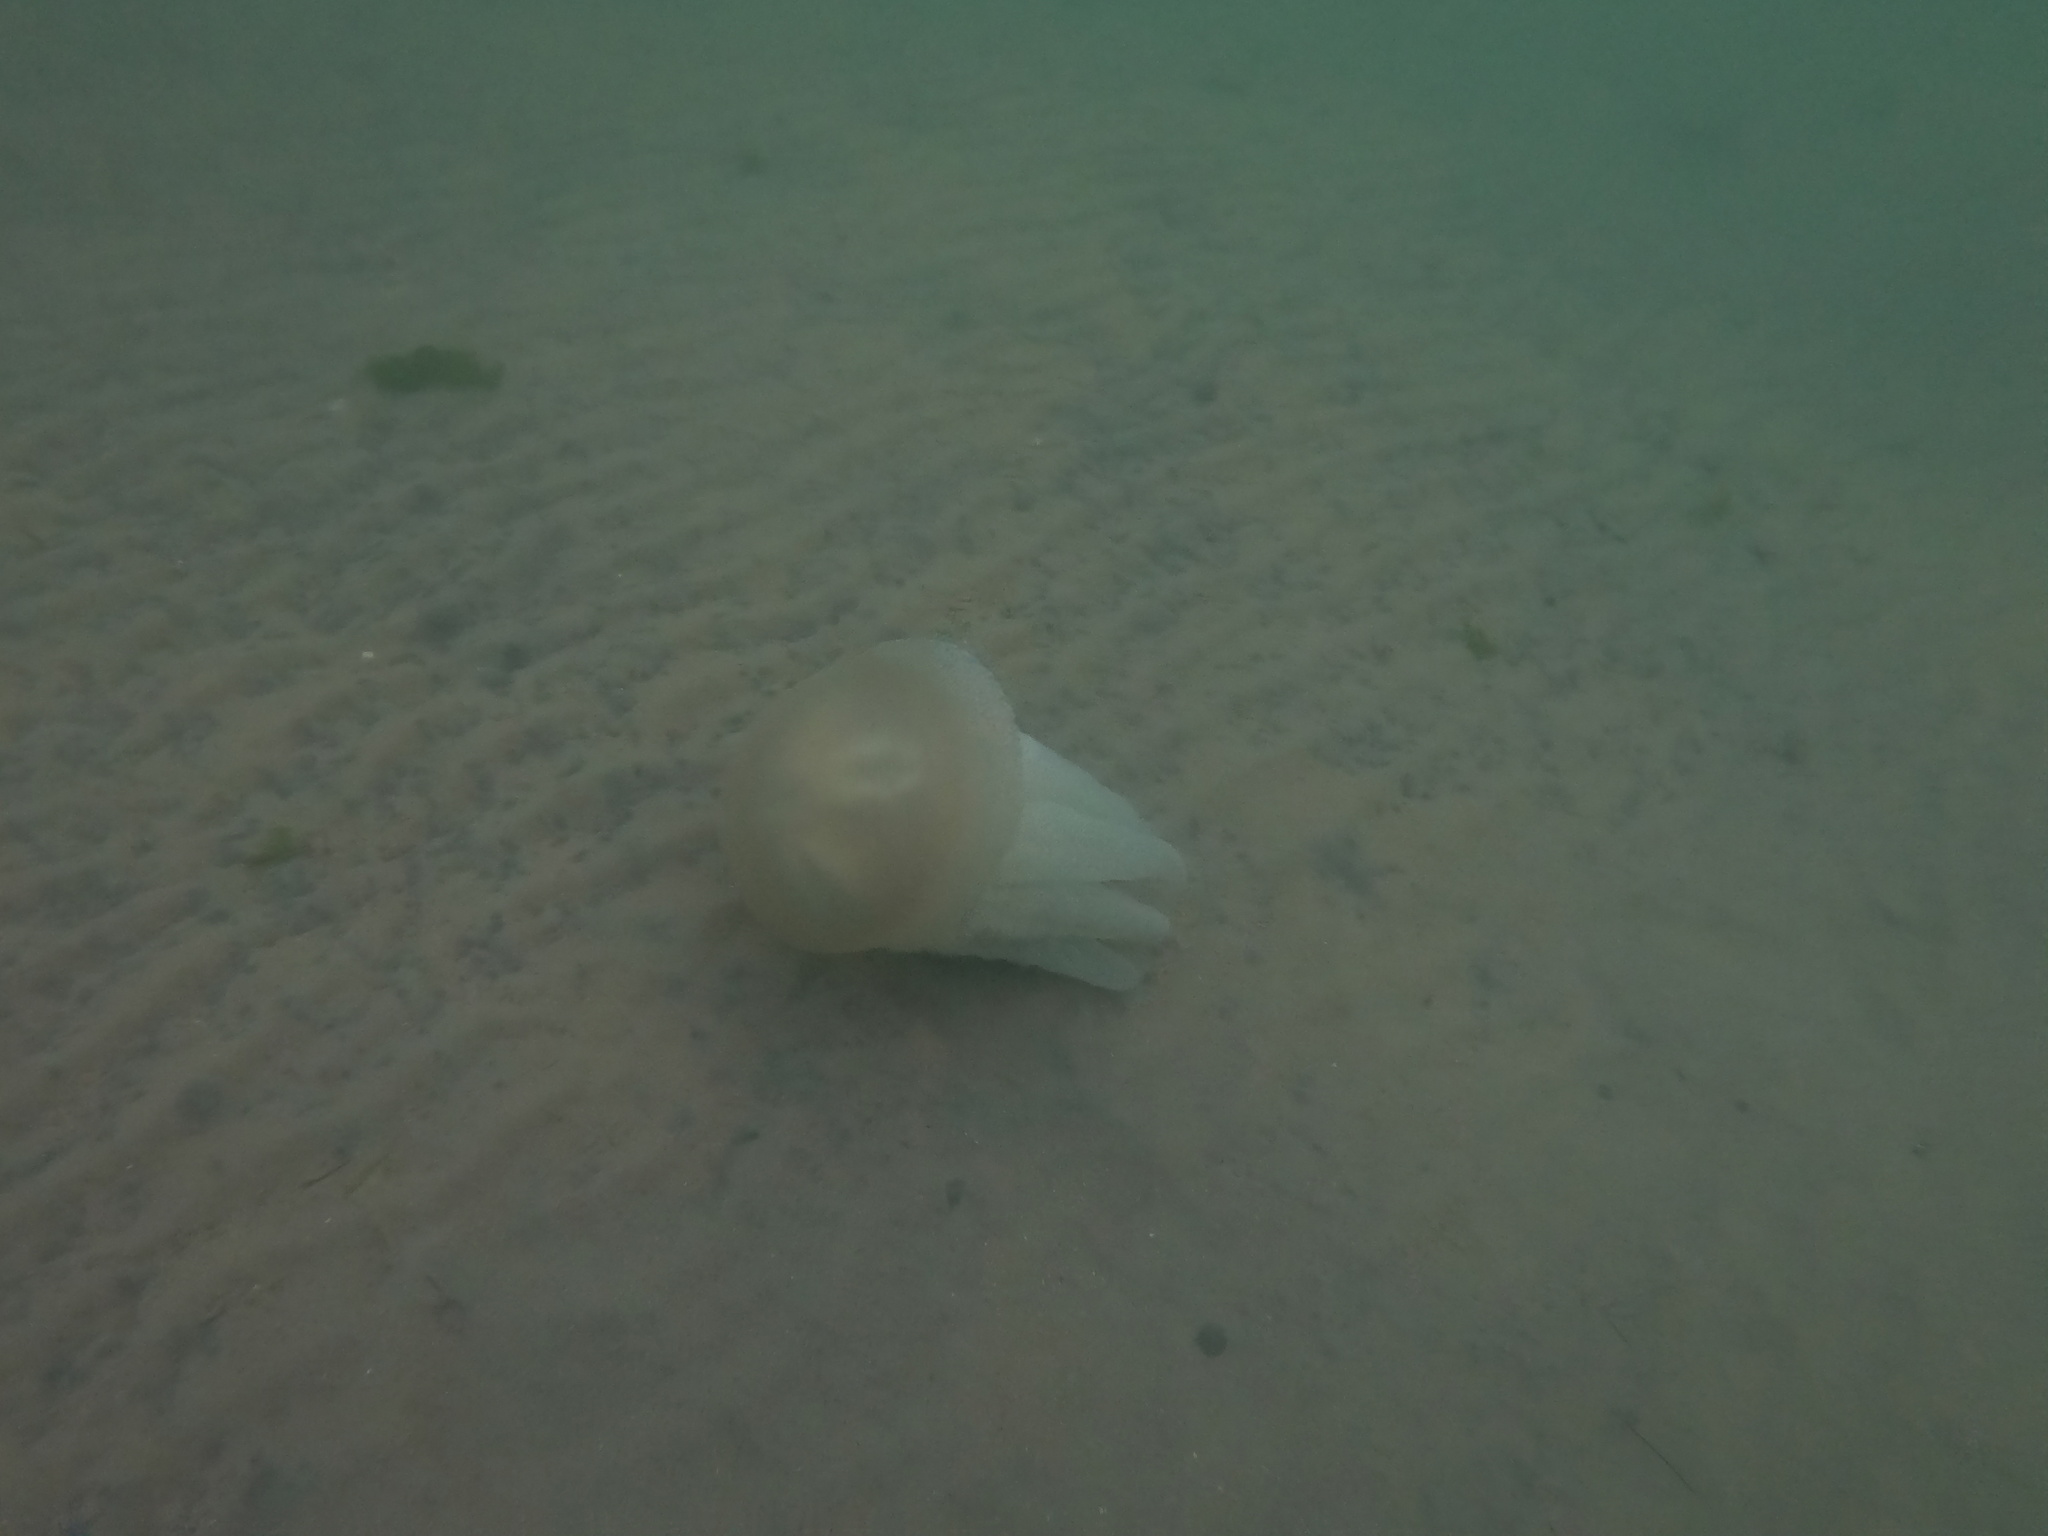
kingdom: Animalia
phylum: Cnidaria
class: Scyphozoa
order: Rhizostomeae
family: Catostylidae
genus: Catostylus
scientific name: Catostylus mosaicus
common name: Blue blubber
